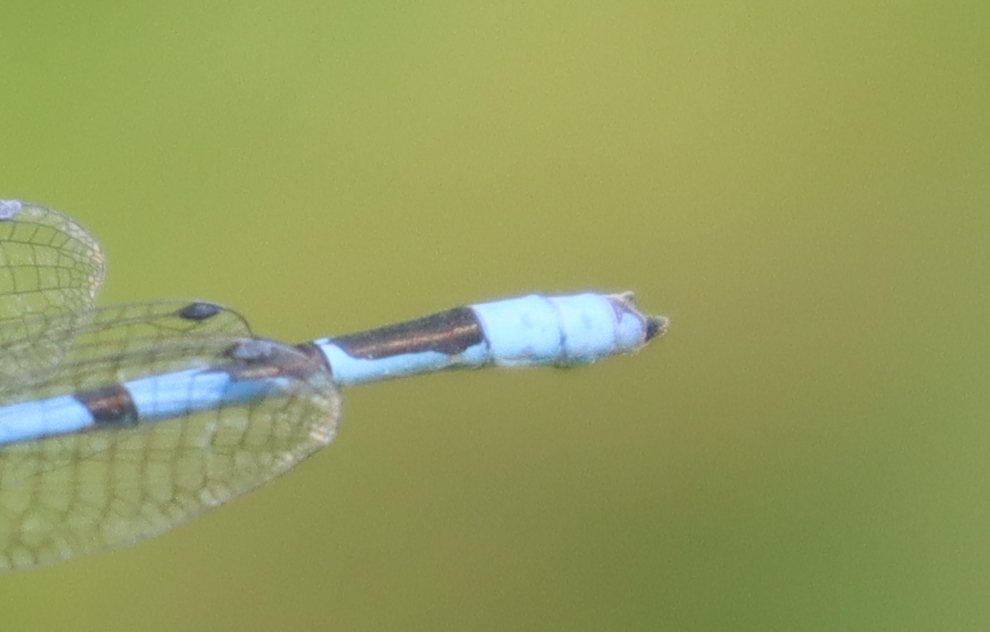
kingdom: Animalia
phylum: Arthropoda
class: Insecta
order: Odonata
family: Coenagrionidae
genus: Enallagma
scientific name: Enallagma civile
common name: Damselfly
